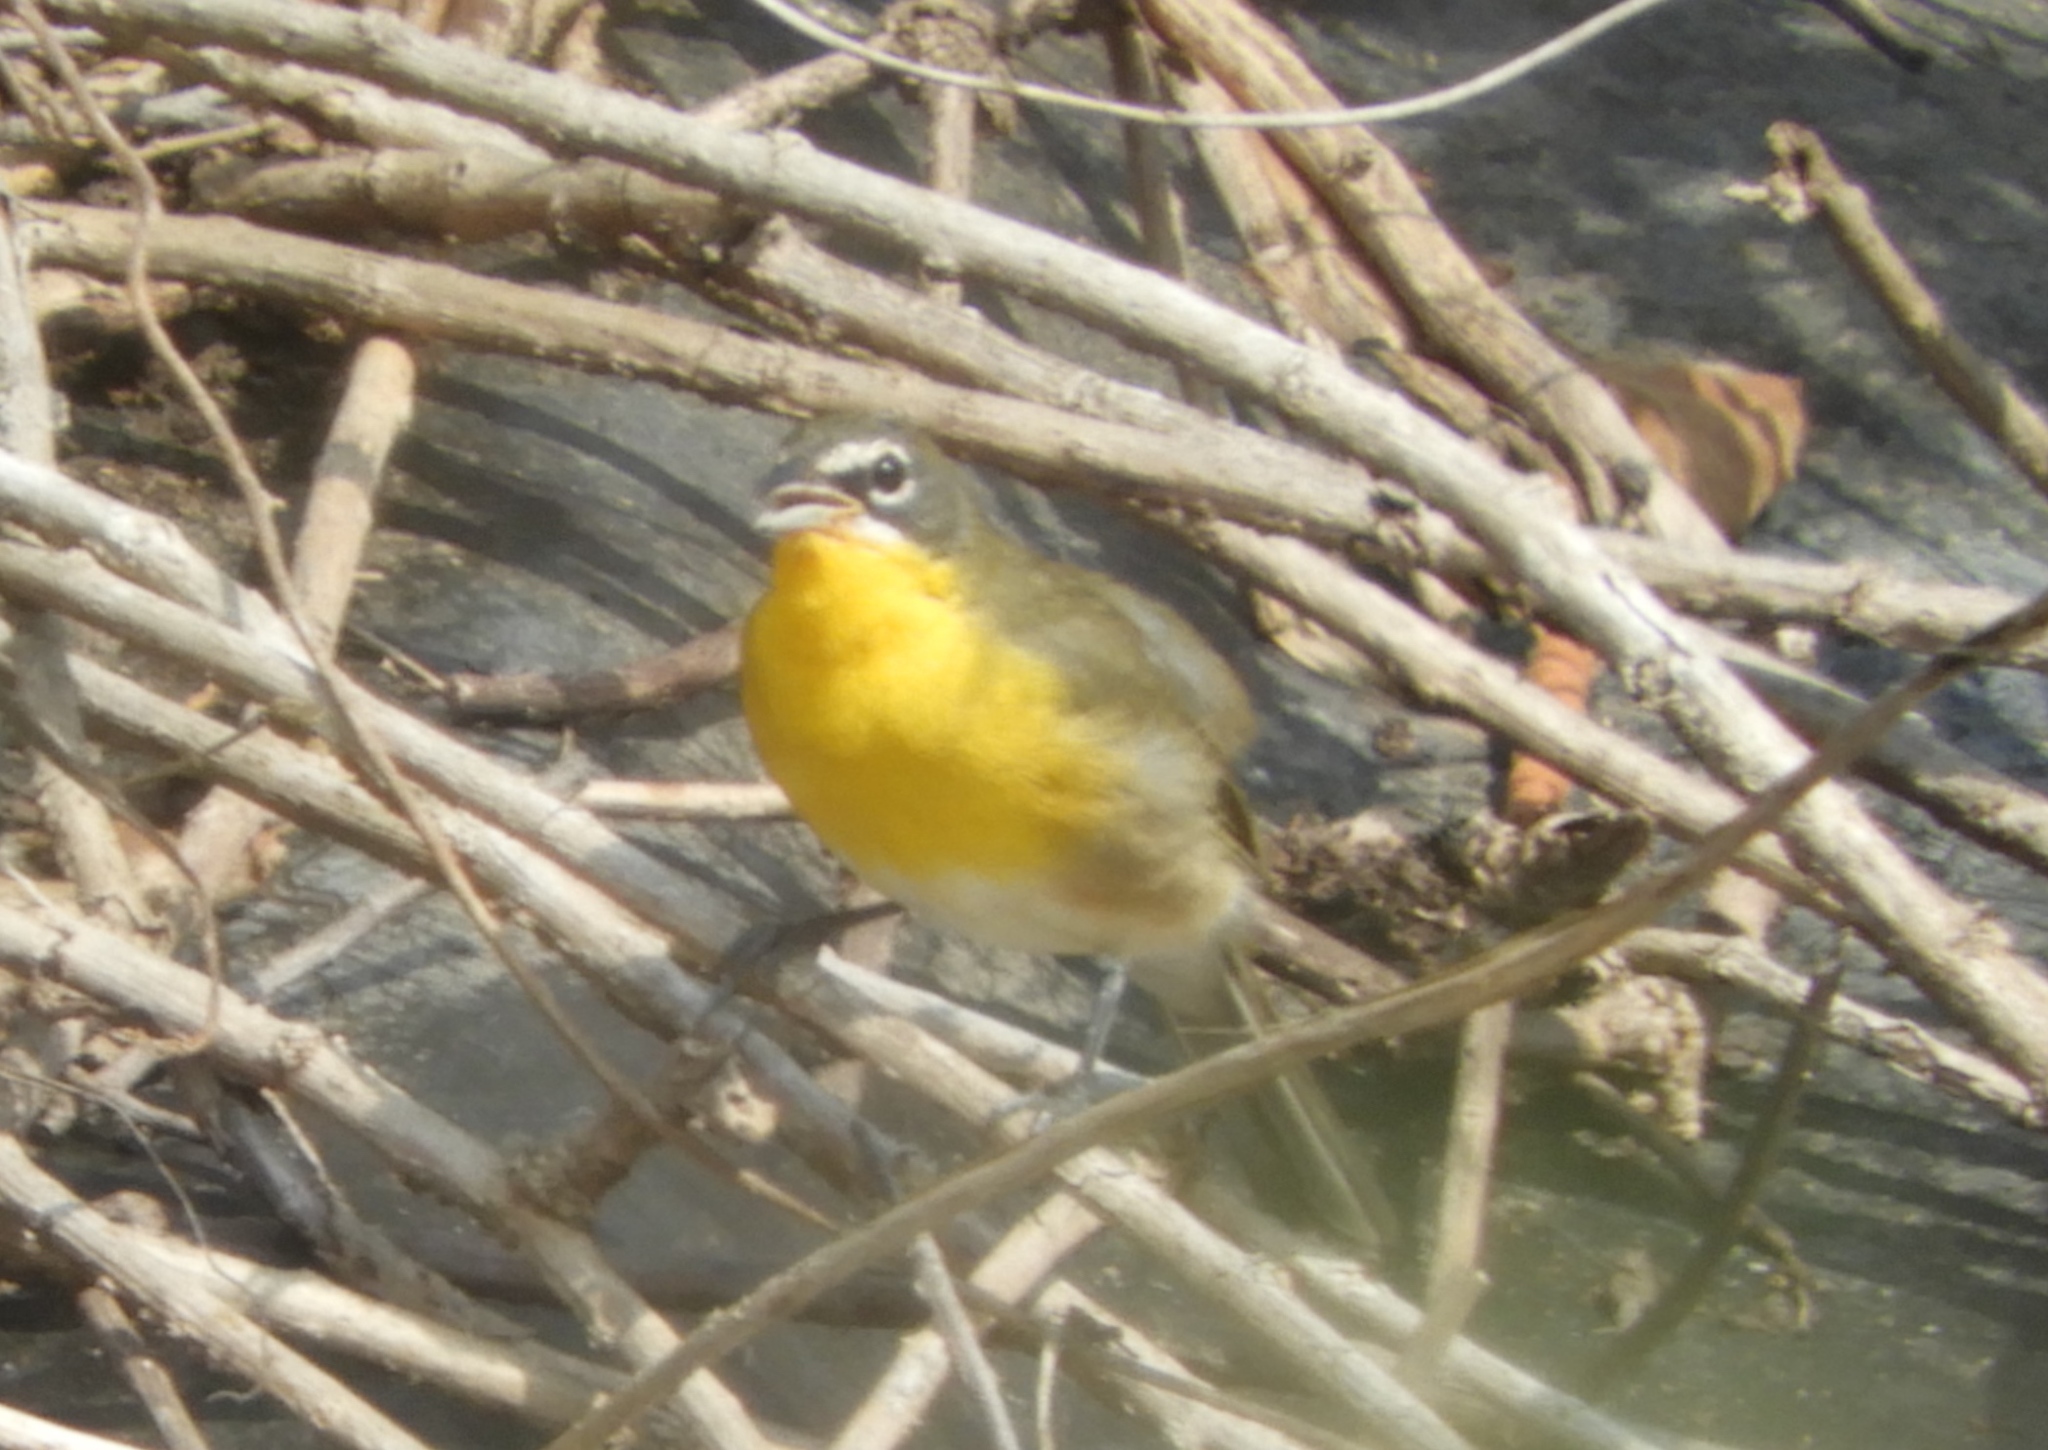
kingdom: Animalia
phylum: Chordata
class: Aves
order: Passeriformes
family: Parulidae
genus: Icteria
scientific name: Icteria virens
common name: Yellow-breasted chat
